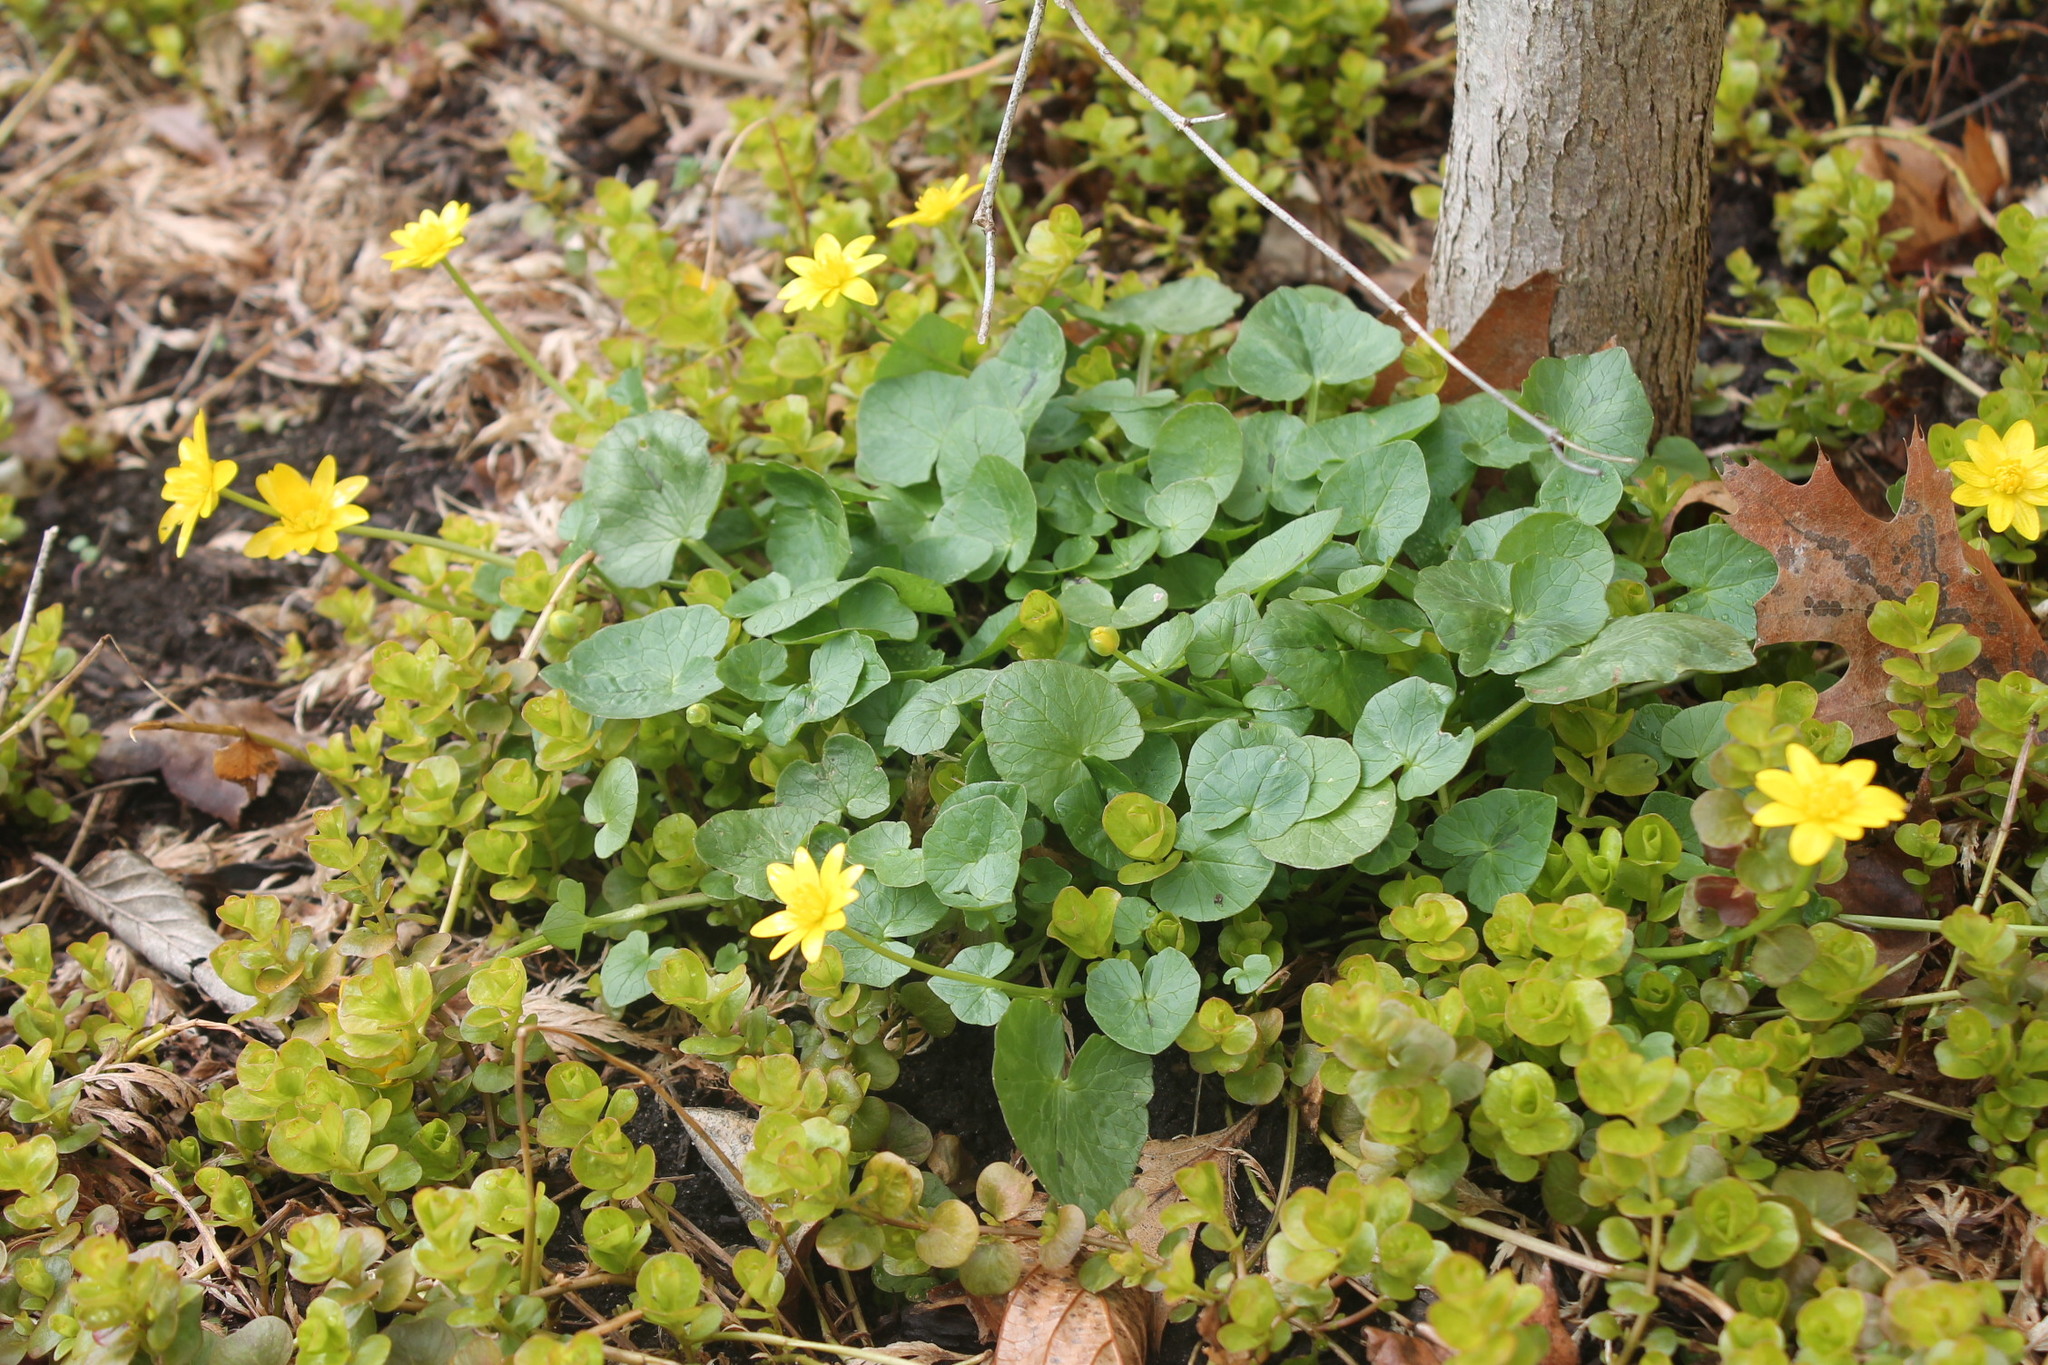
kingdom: Plantae
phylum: Tracheophyta
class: Magnoliopsida
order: Ranunculales
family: Ranunculaceae
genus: Ficaria
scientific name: Ficaria verna
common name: Lesser celandine
